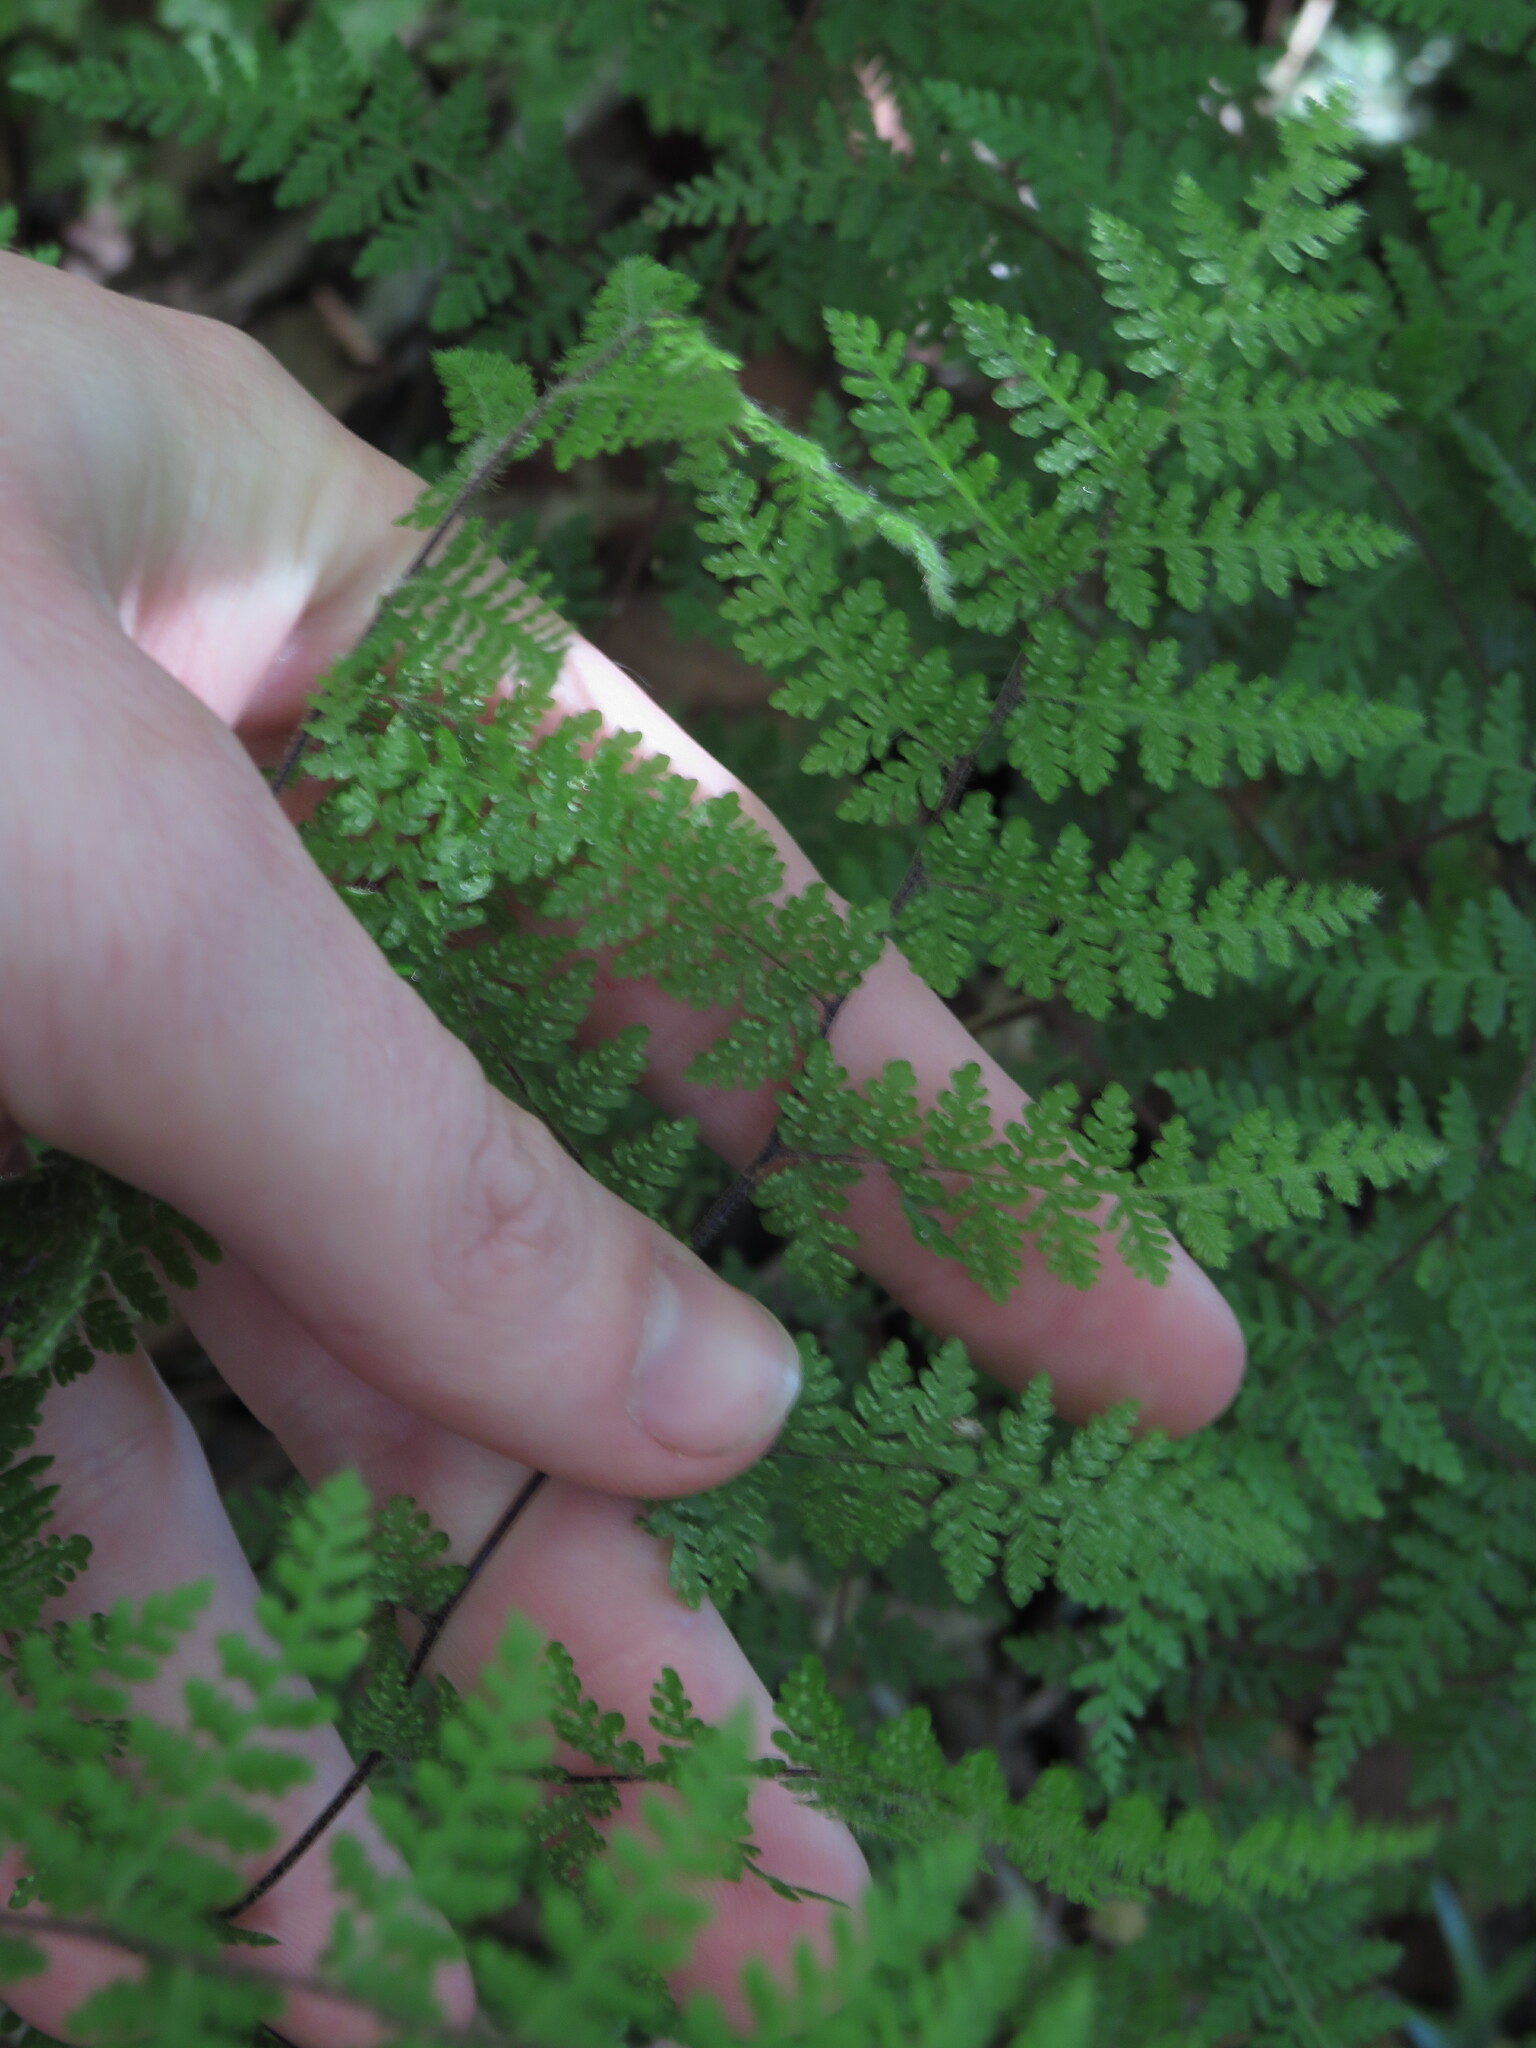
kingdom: Plantae
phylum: Tracheophyta
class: Polypodiopsida
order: Polypodiales
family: Pteridaceae
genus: Cheilanthes
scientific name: Cheilanthes bergiana
